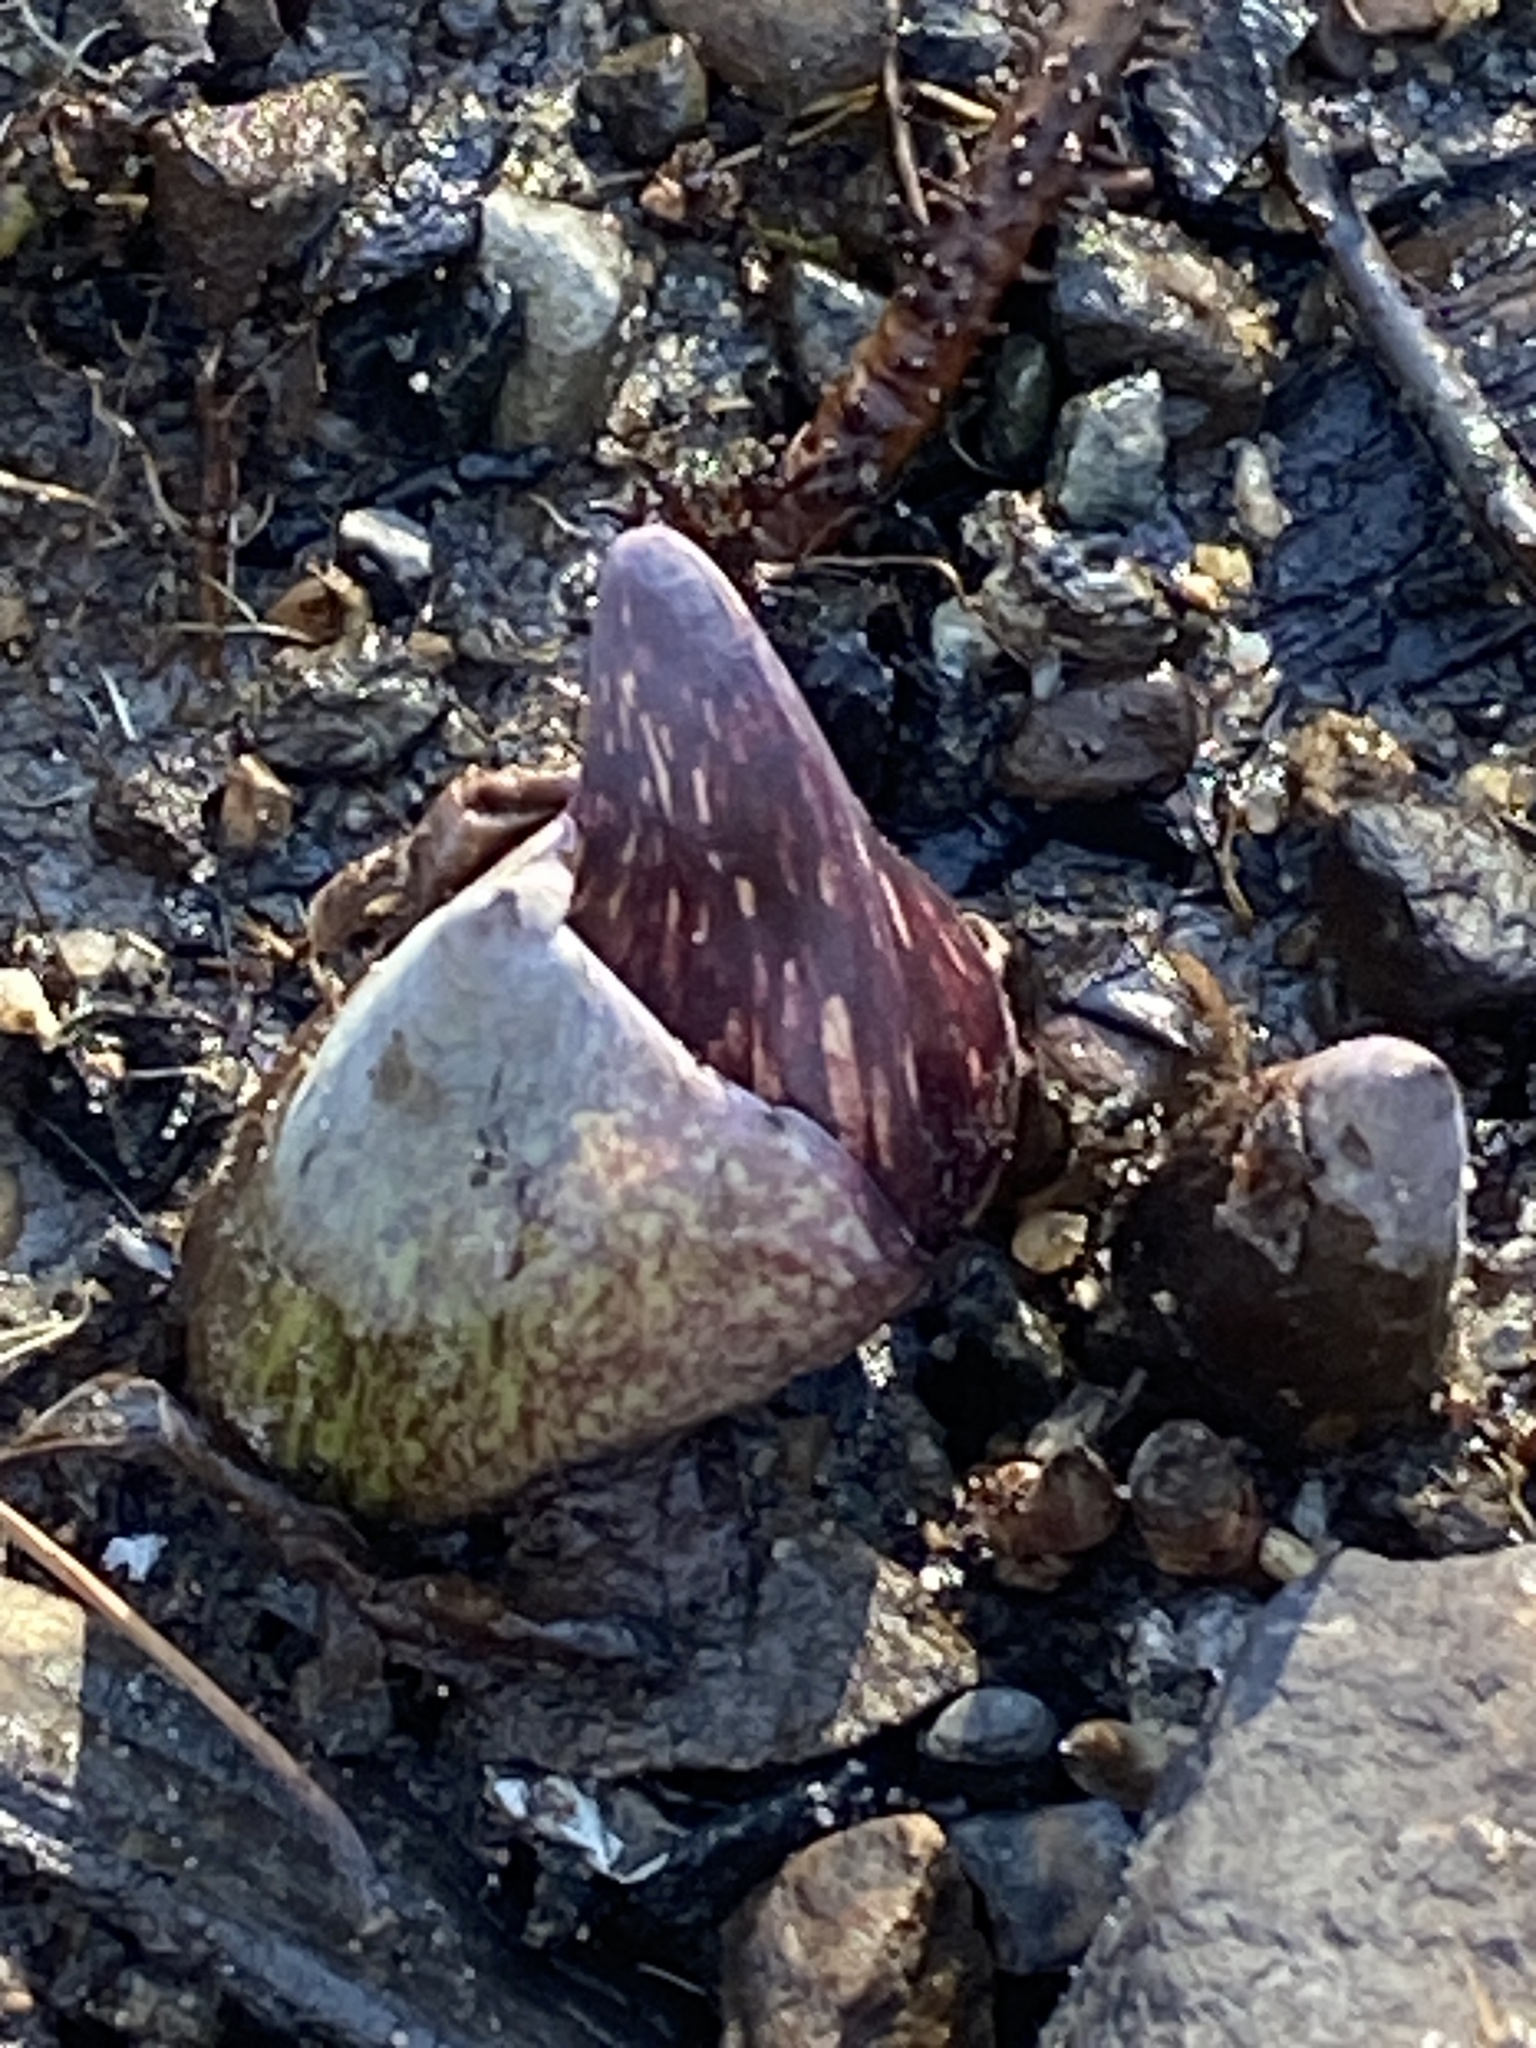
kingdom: Plantae
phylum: Tracheophyta
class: Liliopsida
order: Alismatales
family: Araceae
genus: Symplocarpus
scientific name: Symplocarpus foetidus
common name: Eastern skunk cabbage
